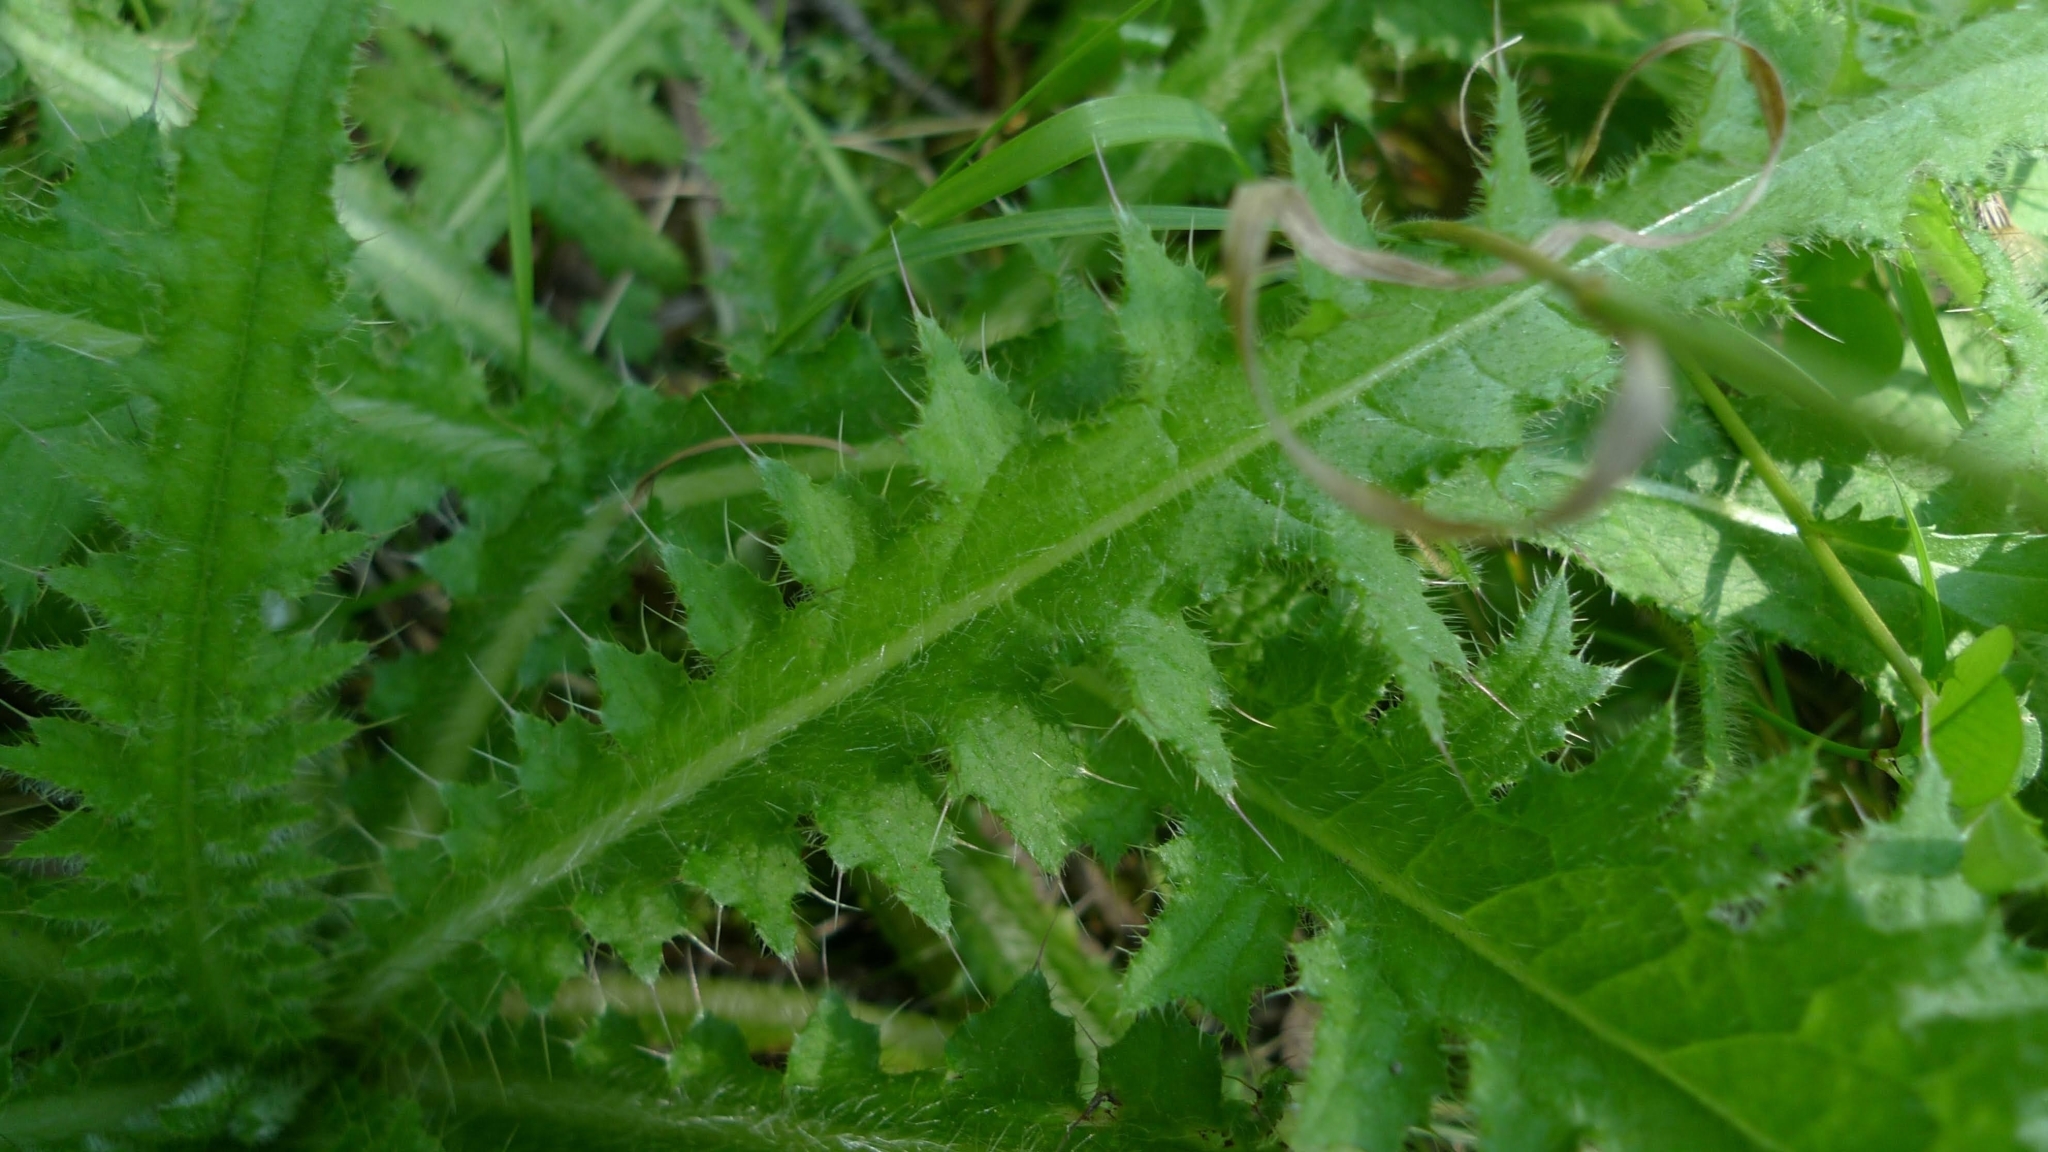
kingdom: Plantae
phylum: Tracheophyta
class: Magnoliopsida
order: Asterales
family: Asteraceae
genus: Cirsium
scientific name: Cirsium palustre
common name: Marsh thistle
